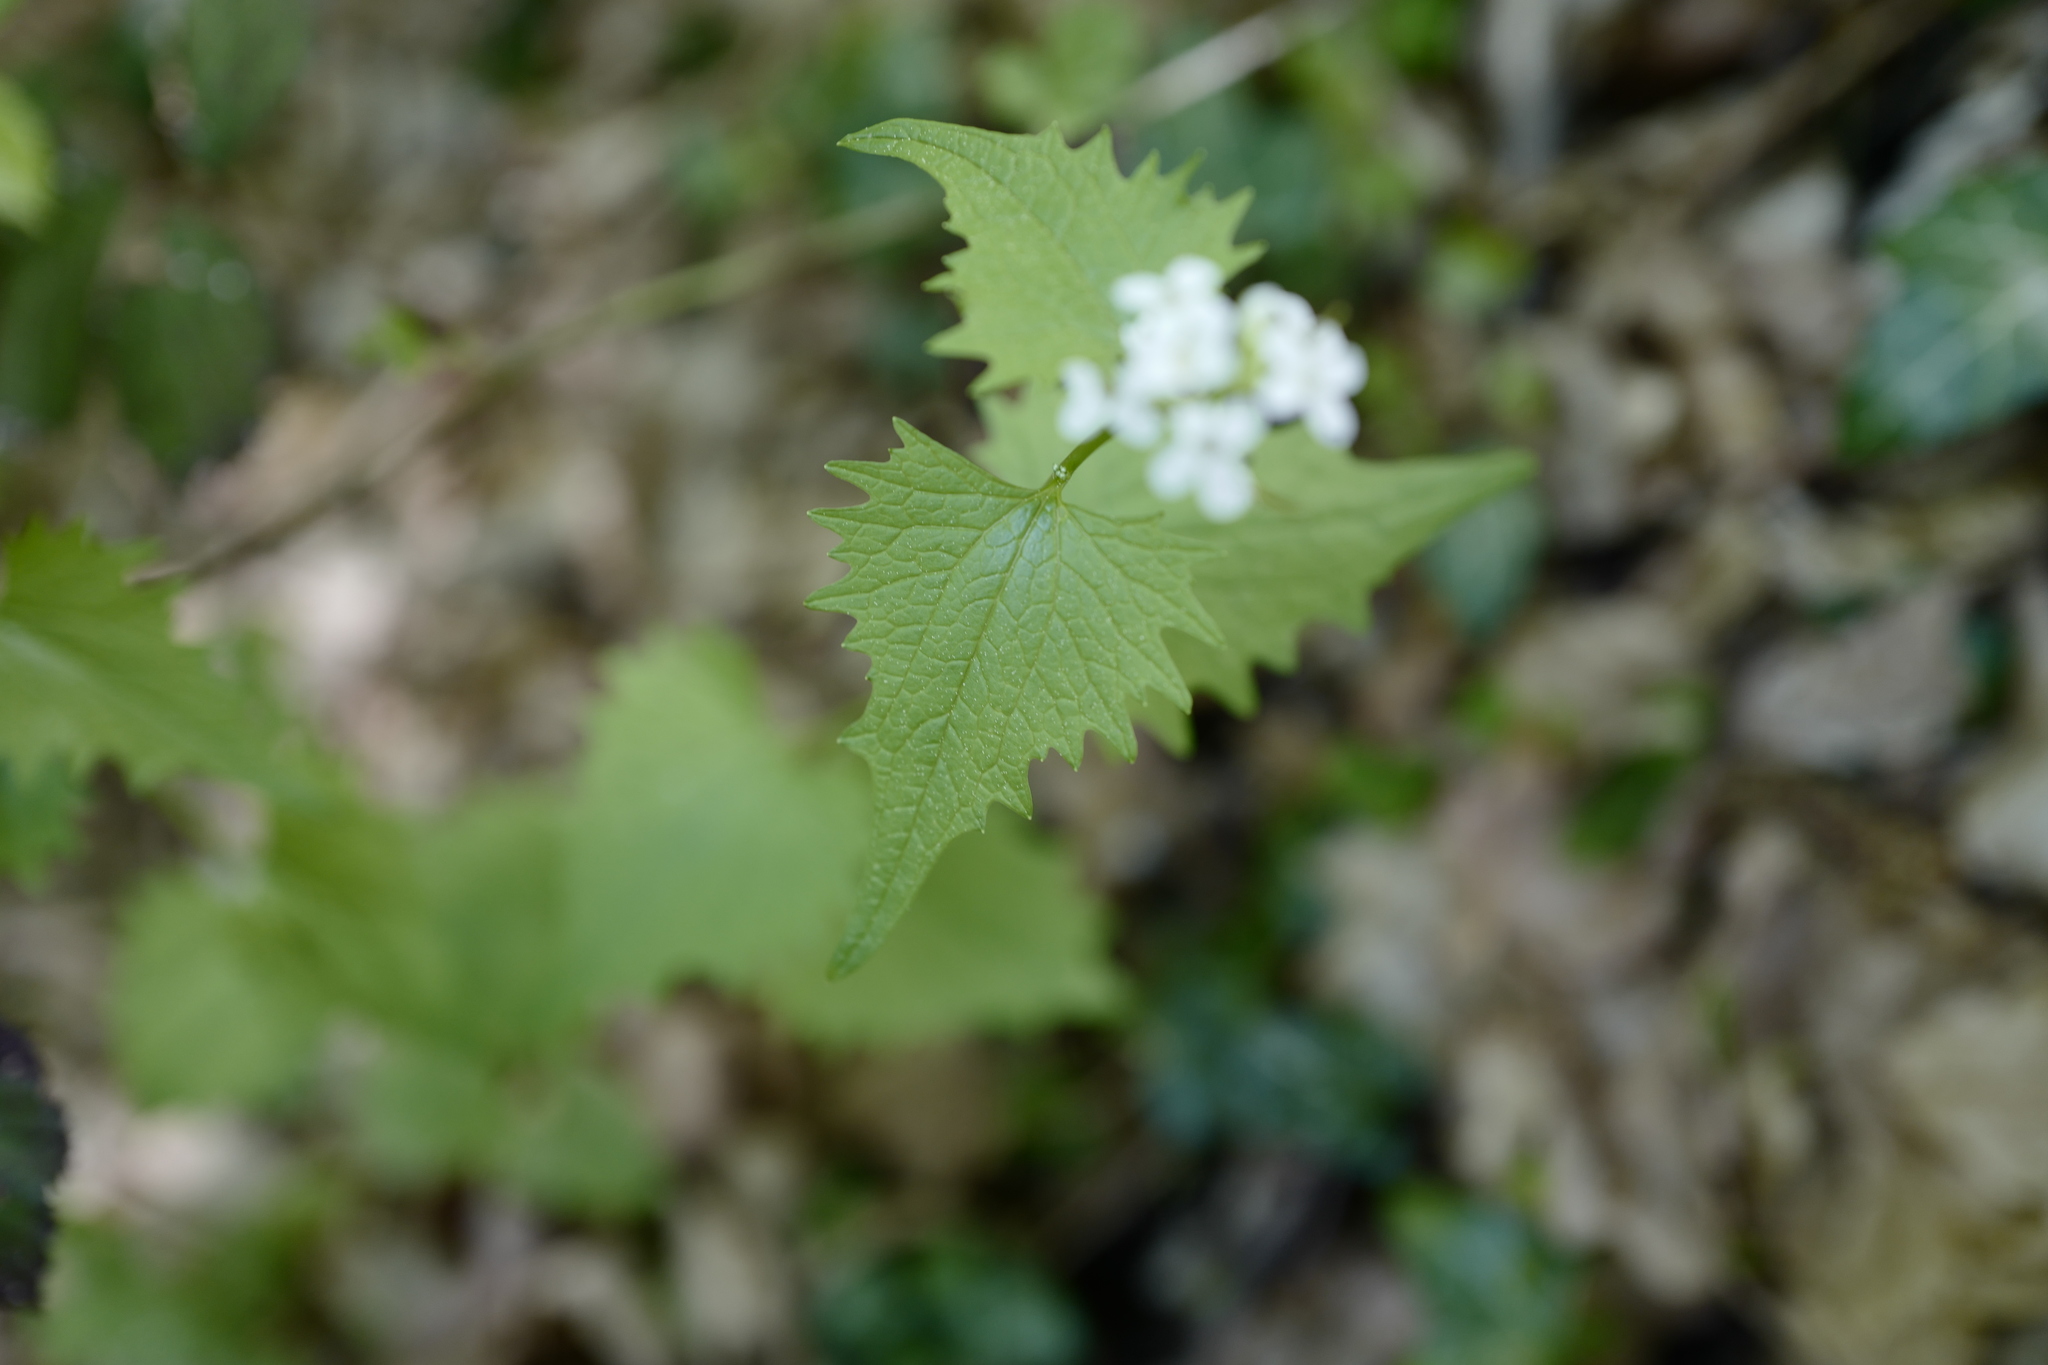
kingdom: Plantae
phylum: Tracheophyta
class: Magnoliopsida
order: Brassicales
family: Brassicaceae
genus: Alliaria
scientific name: Alliaria petiolata
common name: Garlic mustard
